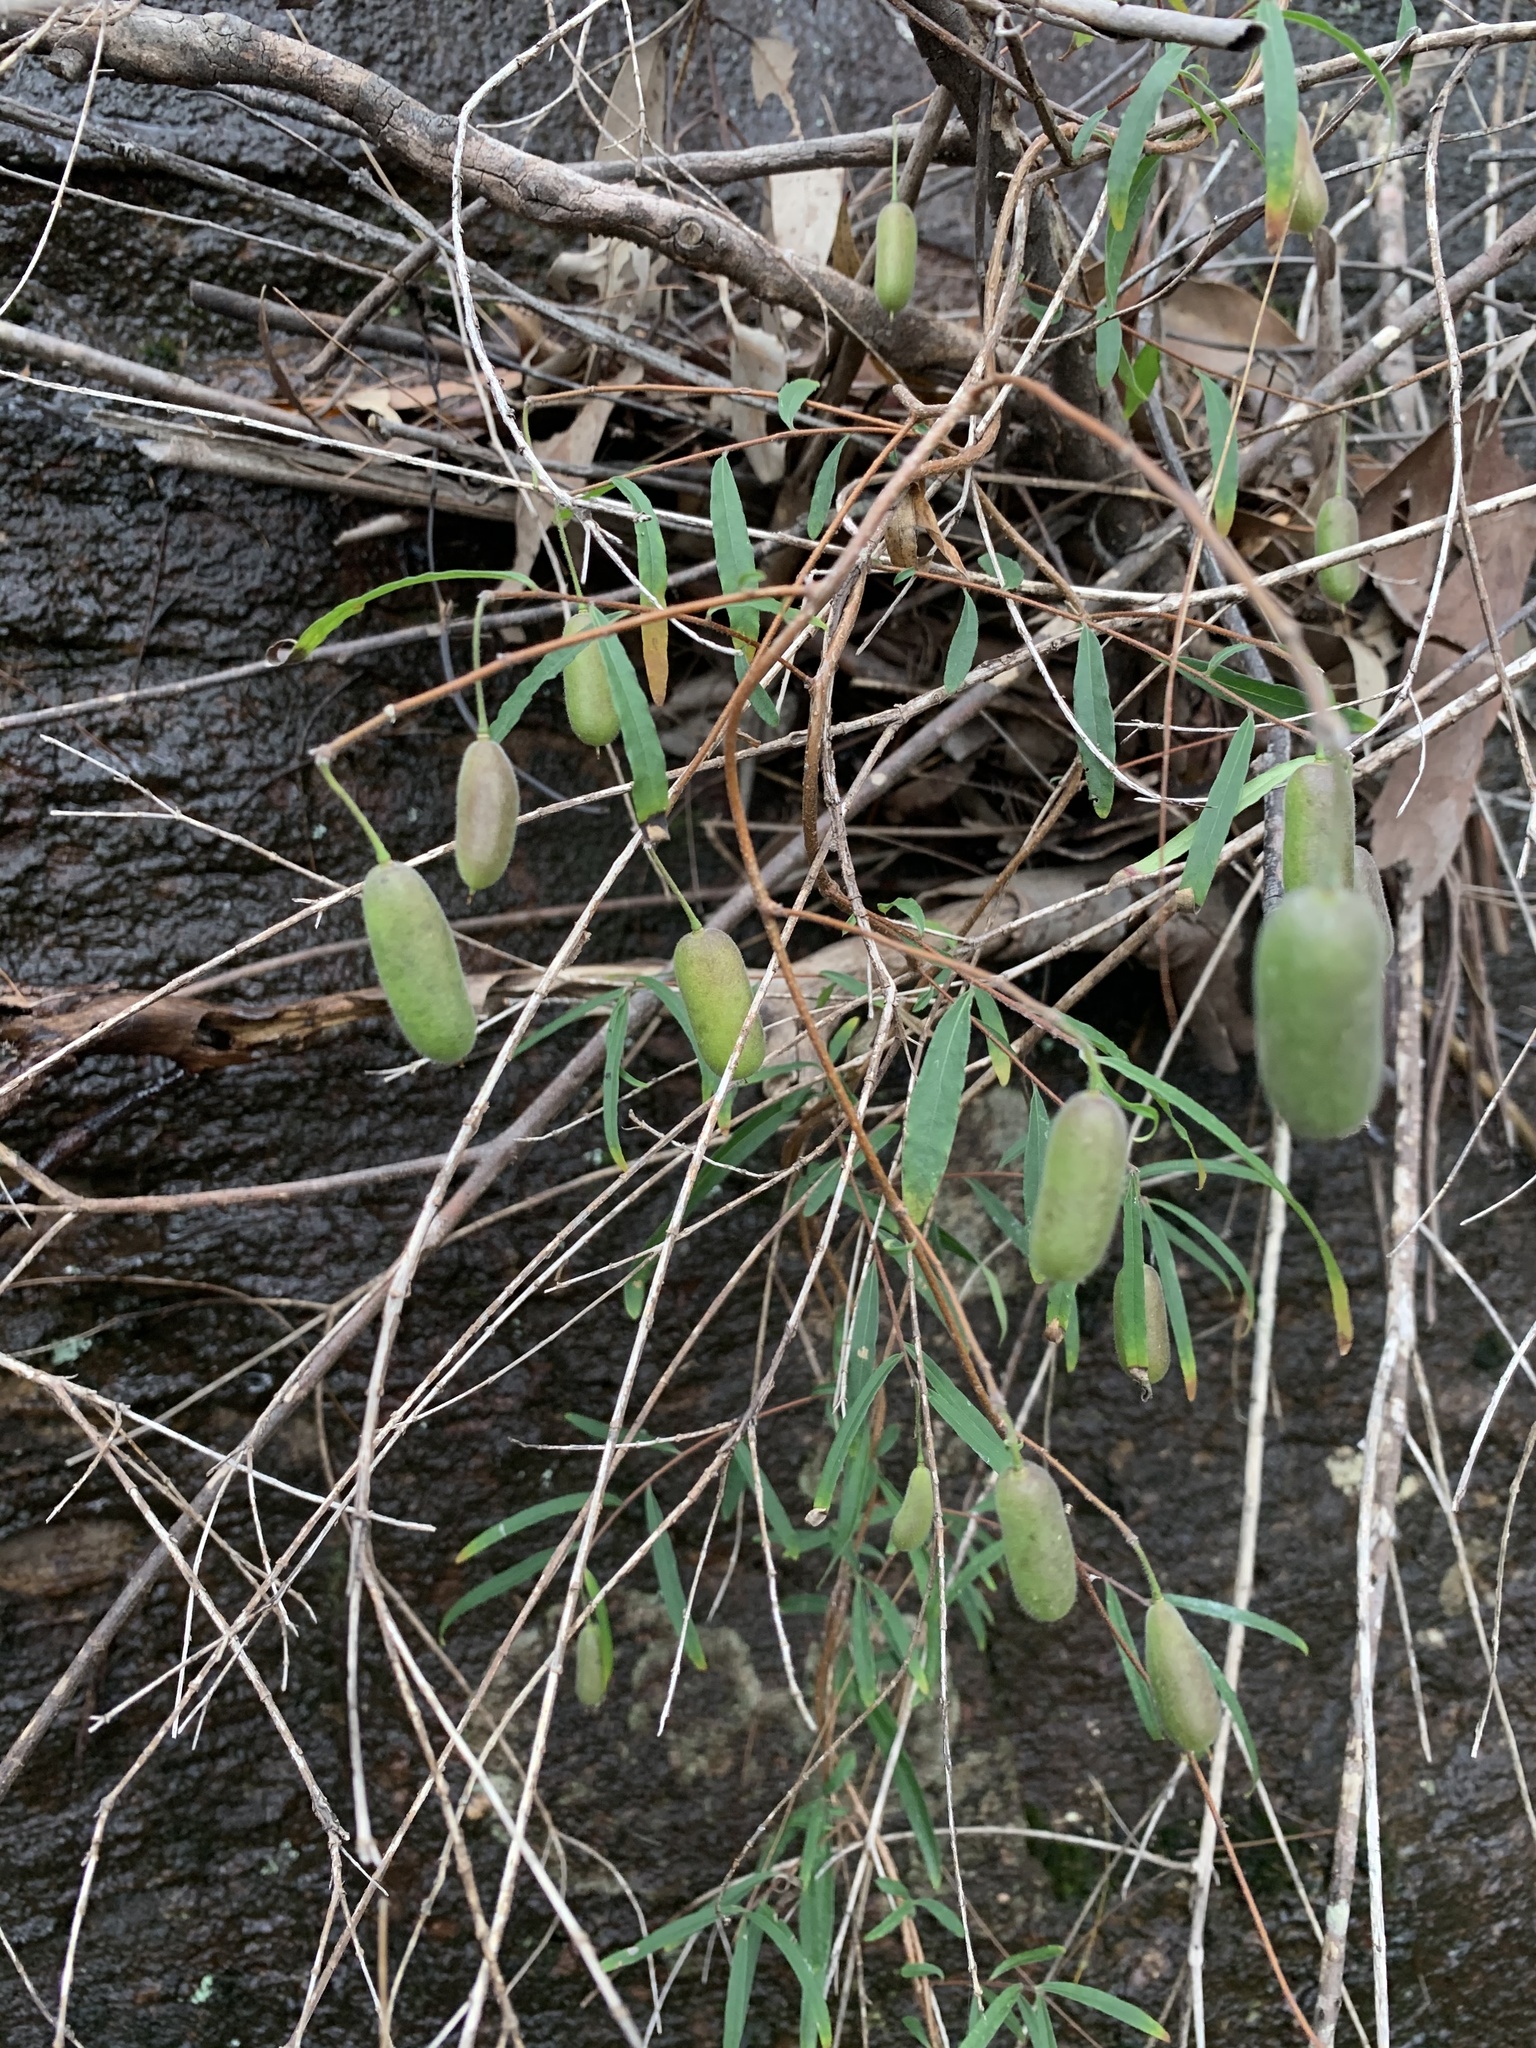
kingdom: Plantae
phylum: Tracheophyta
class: Magnoliopsida
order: Apiales
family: Pittosporaceae
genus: Billardiera
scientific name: Billardiera scandens
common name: Apple-berry
